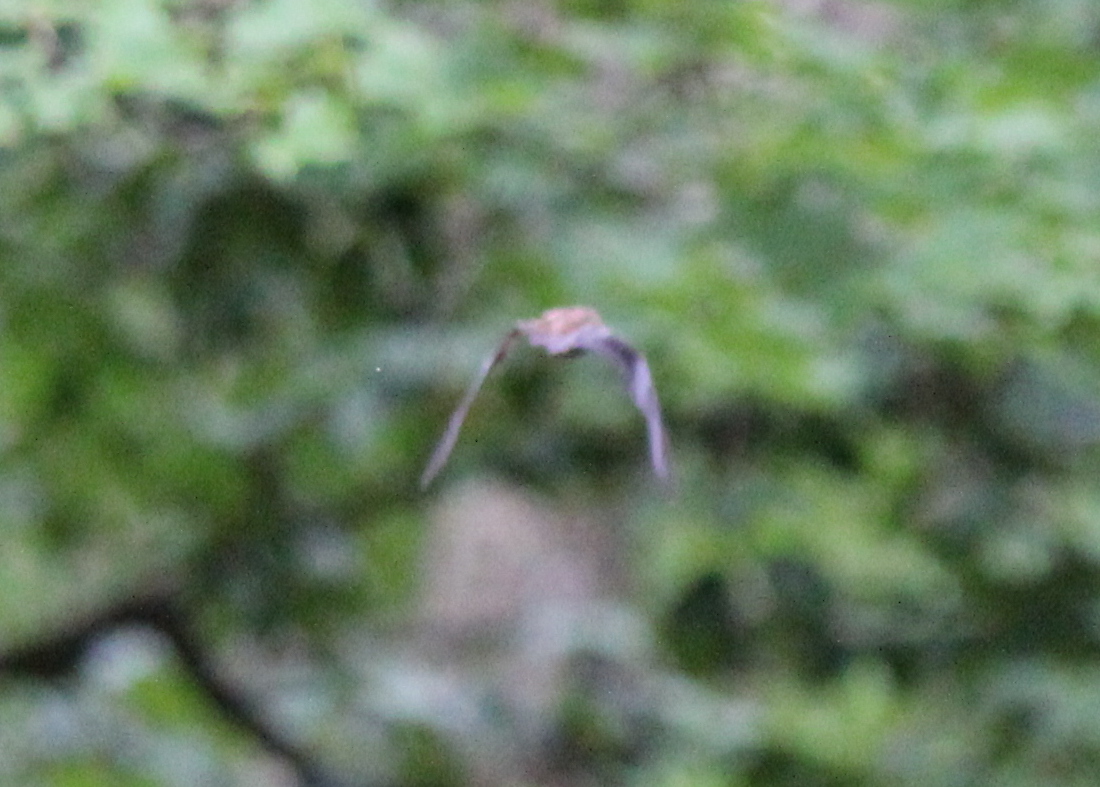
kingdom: Animalia
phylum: Chordata
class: Mammalia
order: Chiroptera
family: Vespertilionidae
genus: Eptesicus
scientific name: Eptesicus fuscus
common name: Big brown bat
